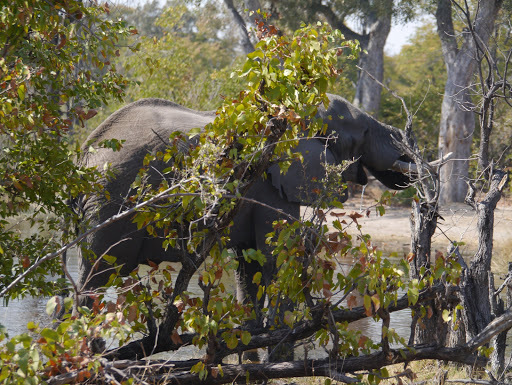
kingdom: Animalia
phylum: Chordata
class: Mammalia
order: Proboscidea
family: Elephantidae
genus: Loxodonta
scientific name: Loxodonta africana
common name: African elephant
